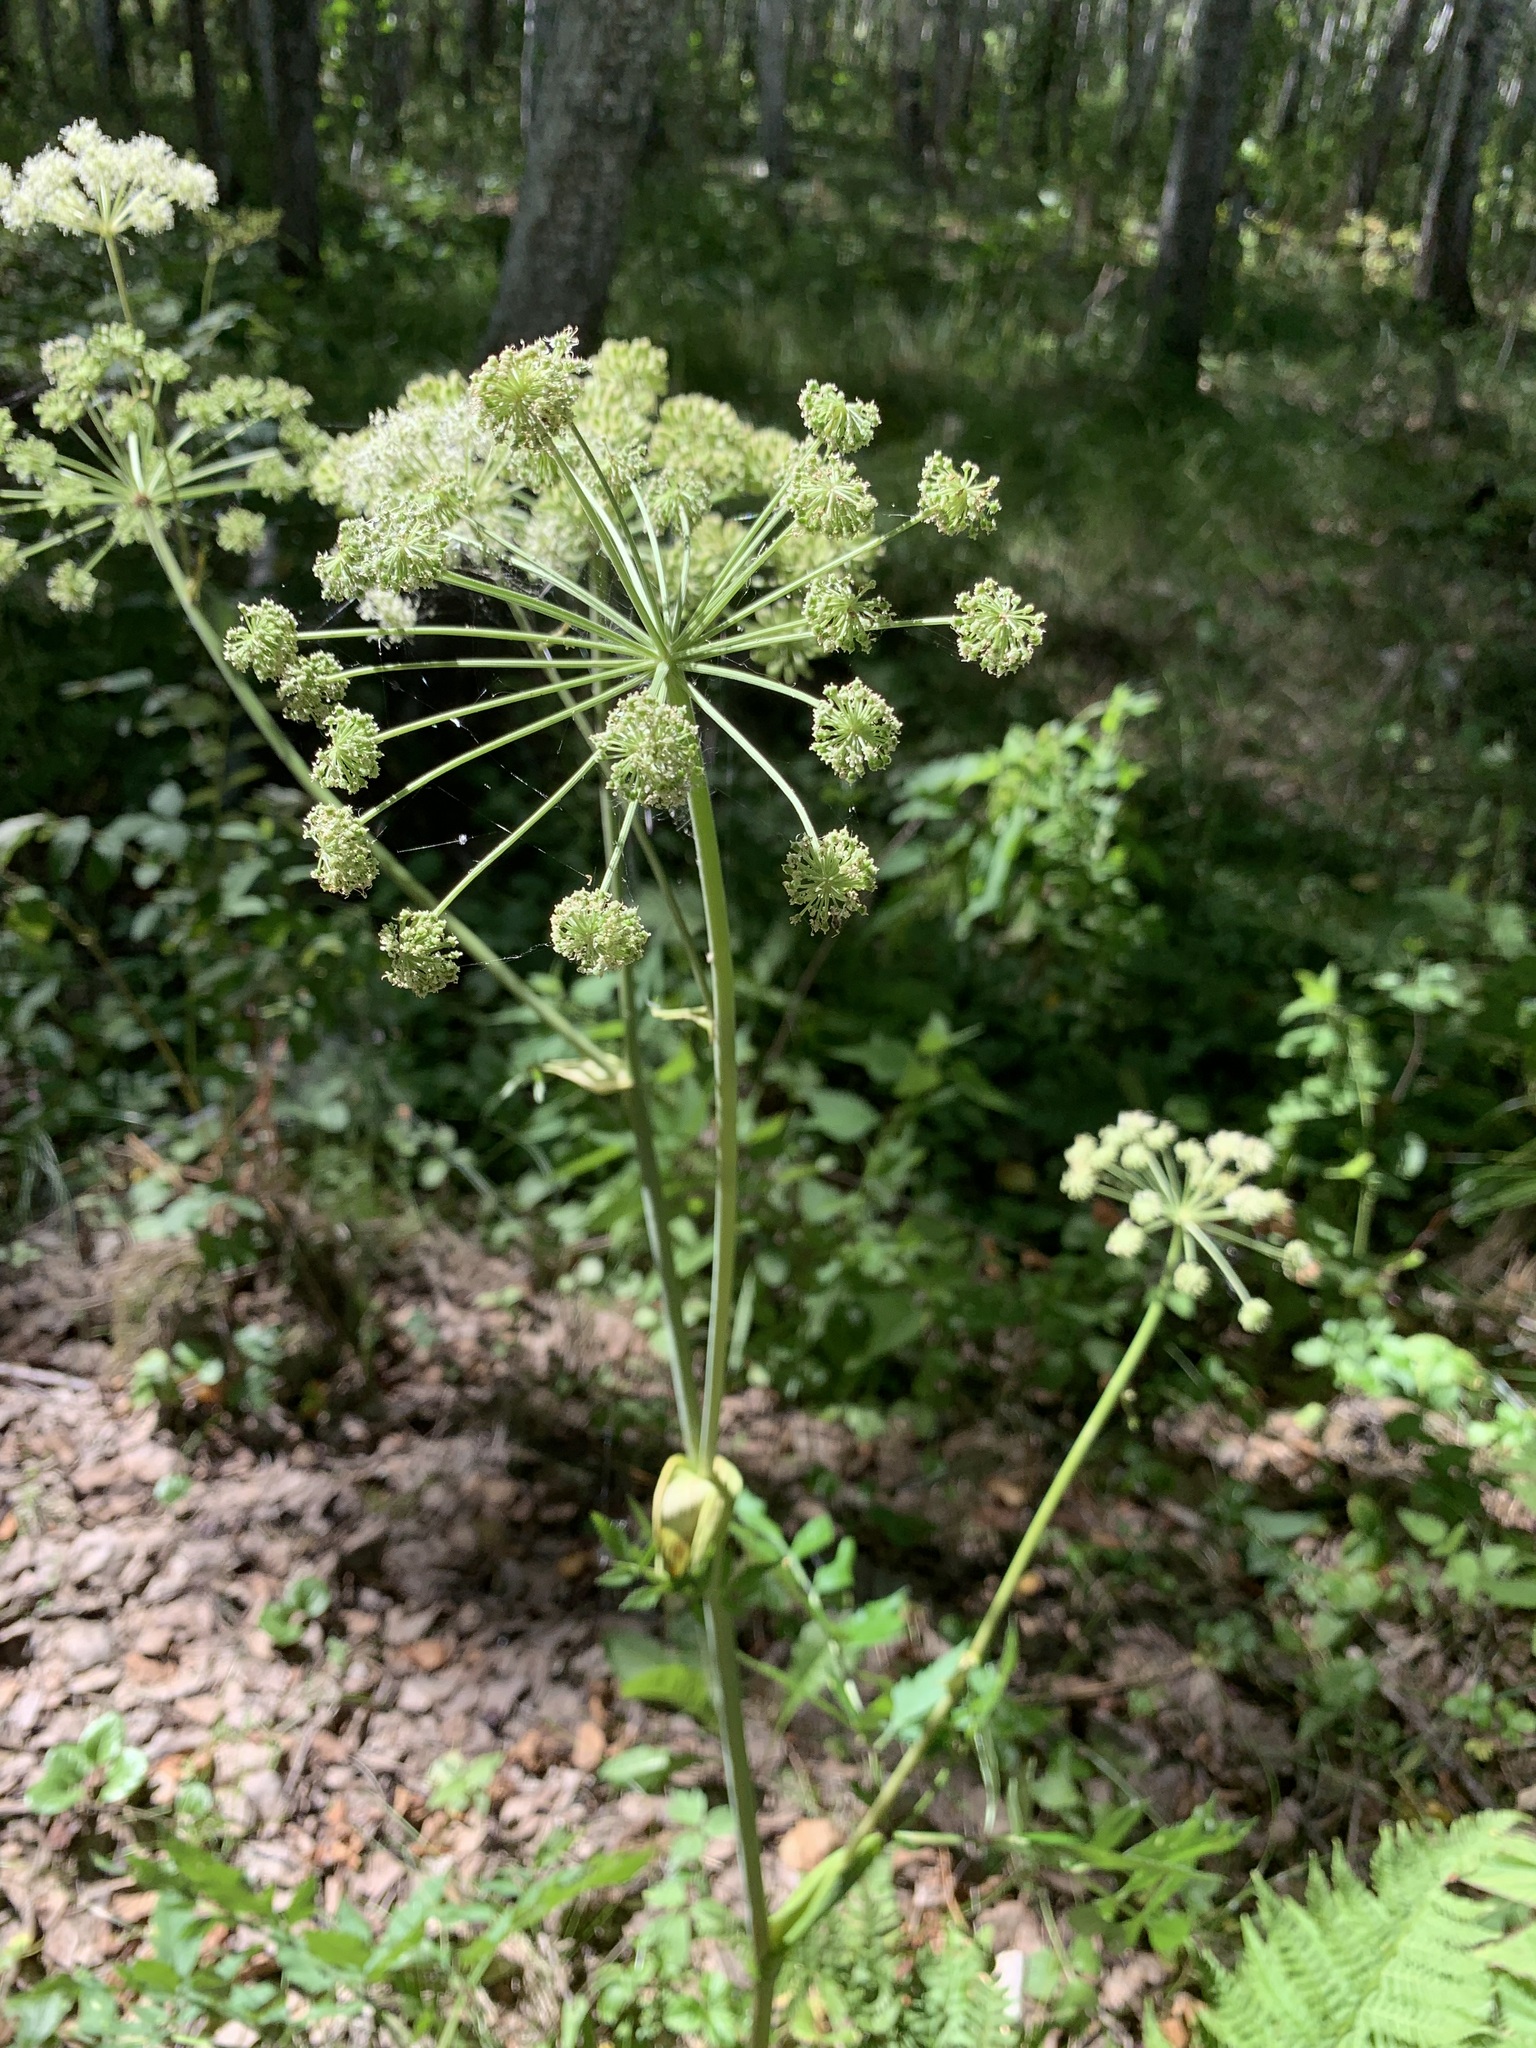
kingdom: Plantae
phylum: Tracheophyta
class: Magnoliopsida
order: Apiales
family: Apiaceae
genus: Angelica
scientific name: Angelica sylvestris
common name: Wild angelica
